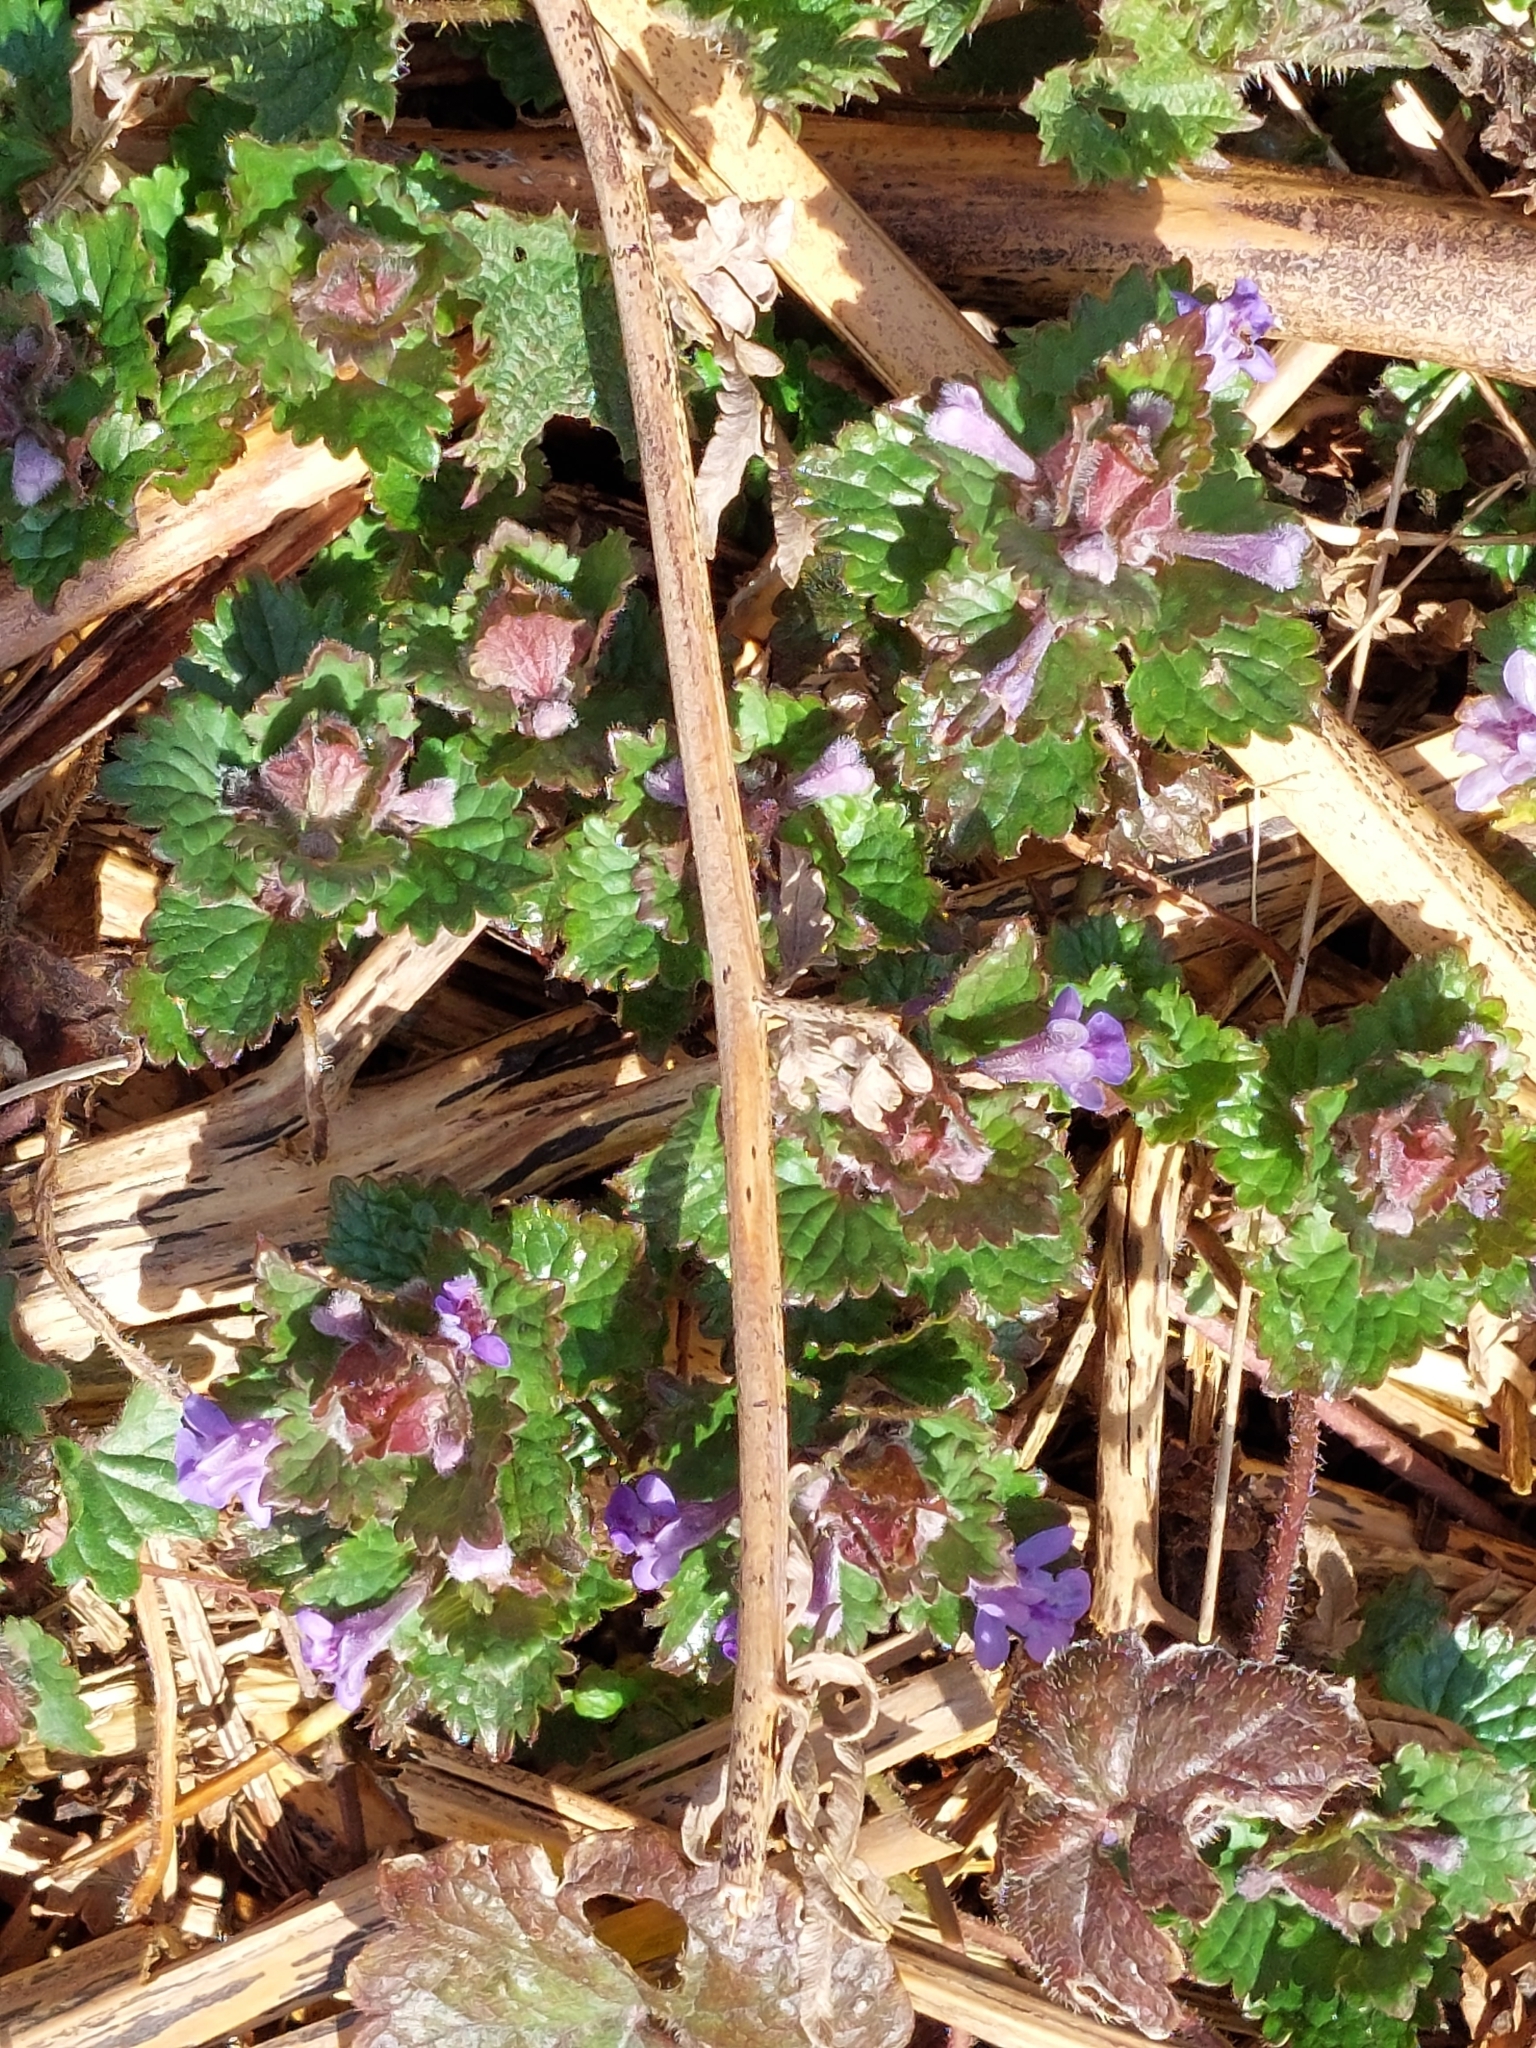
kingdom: Plantae
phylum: Tracheophyta
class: Magnoliopsida
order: Lamiales
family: Lamiaceae
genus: Glechoma
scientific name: Glechoma hederacea
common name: Ground ivy
